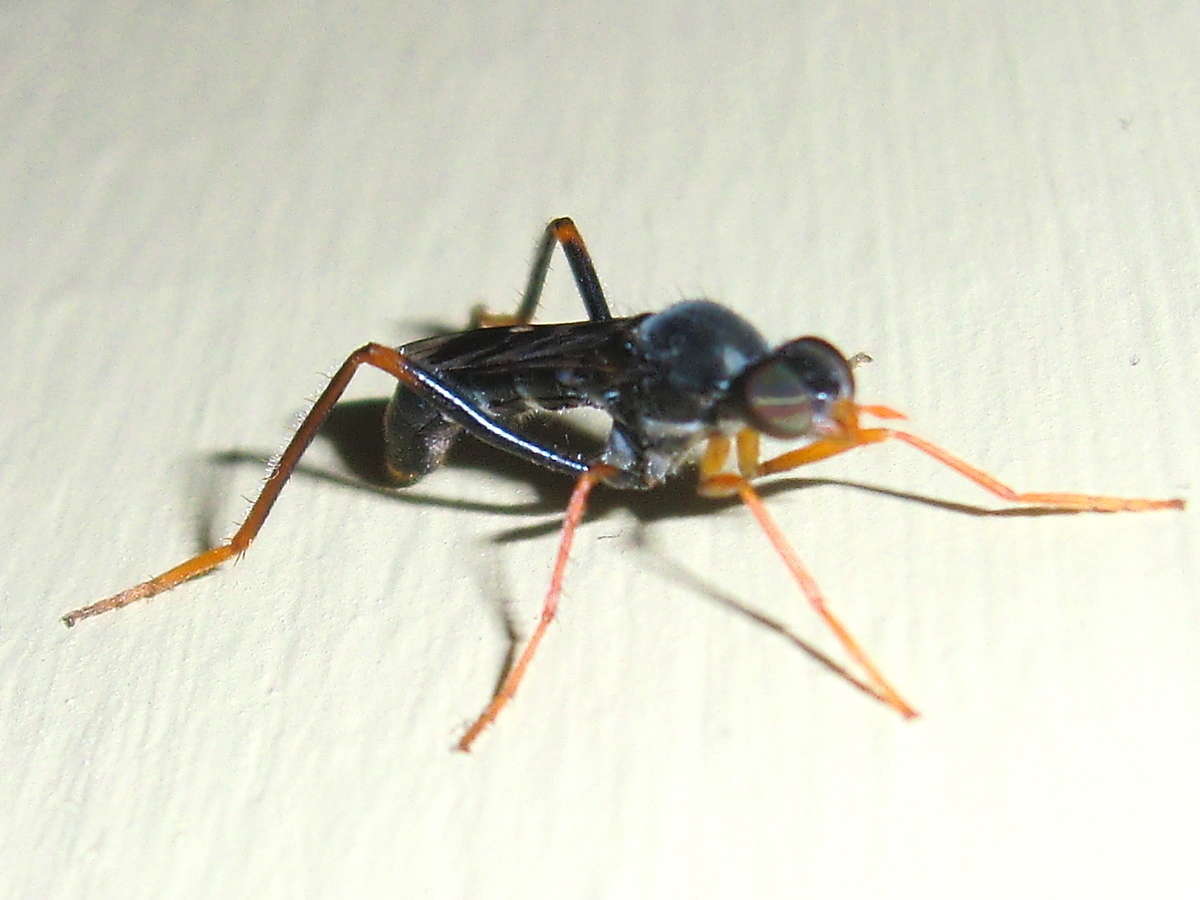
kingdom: Animalia
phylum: Arthropoda
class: Insecta
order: Diptera
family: Therevidae
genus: Acraspisoides
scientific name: Acraspisoides helviarta
